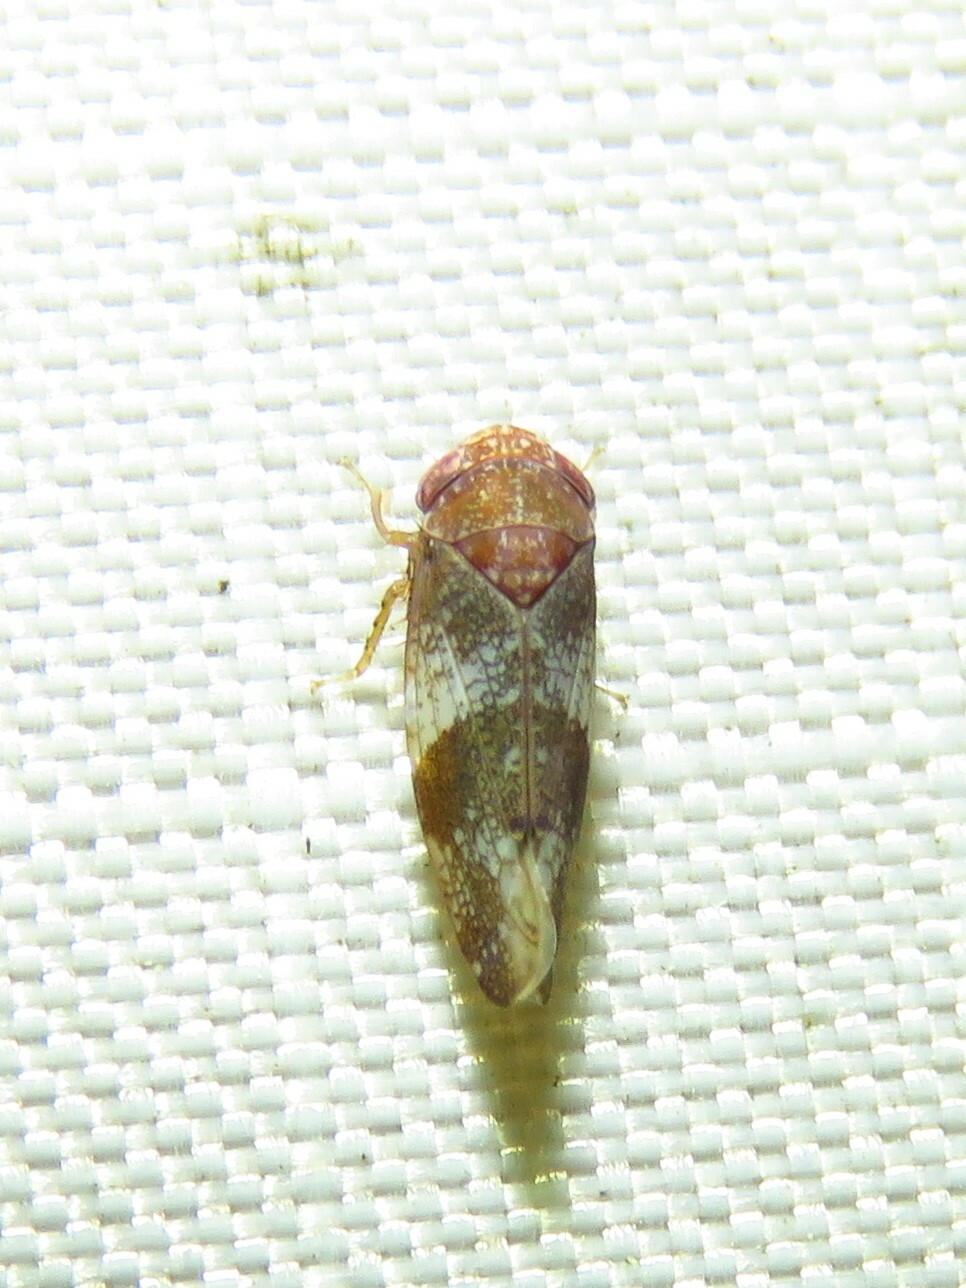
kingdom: Animalia
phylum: Arthropoda
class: Insecta
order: Hemiptera
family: Cicadellidae
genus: Norvellina
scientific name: Norvellina helenae
